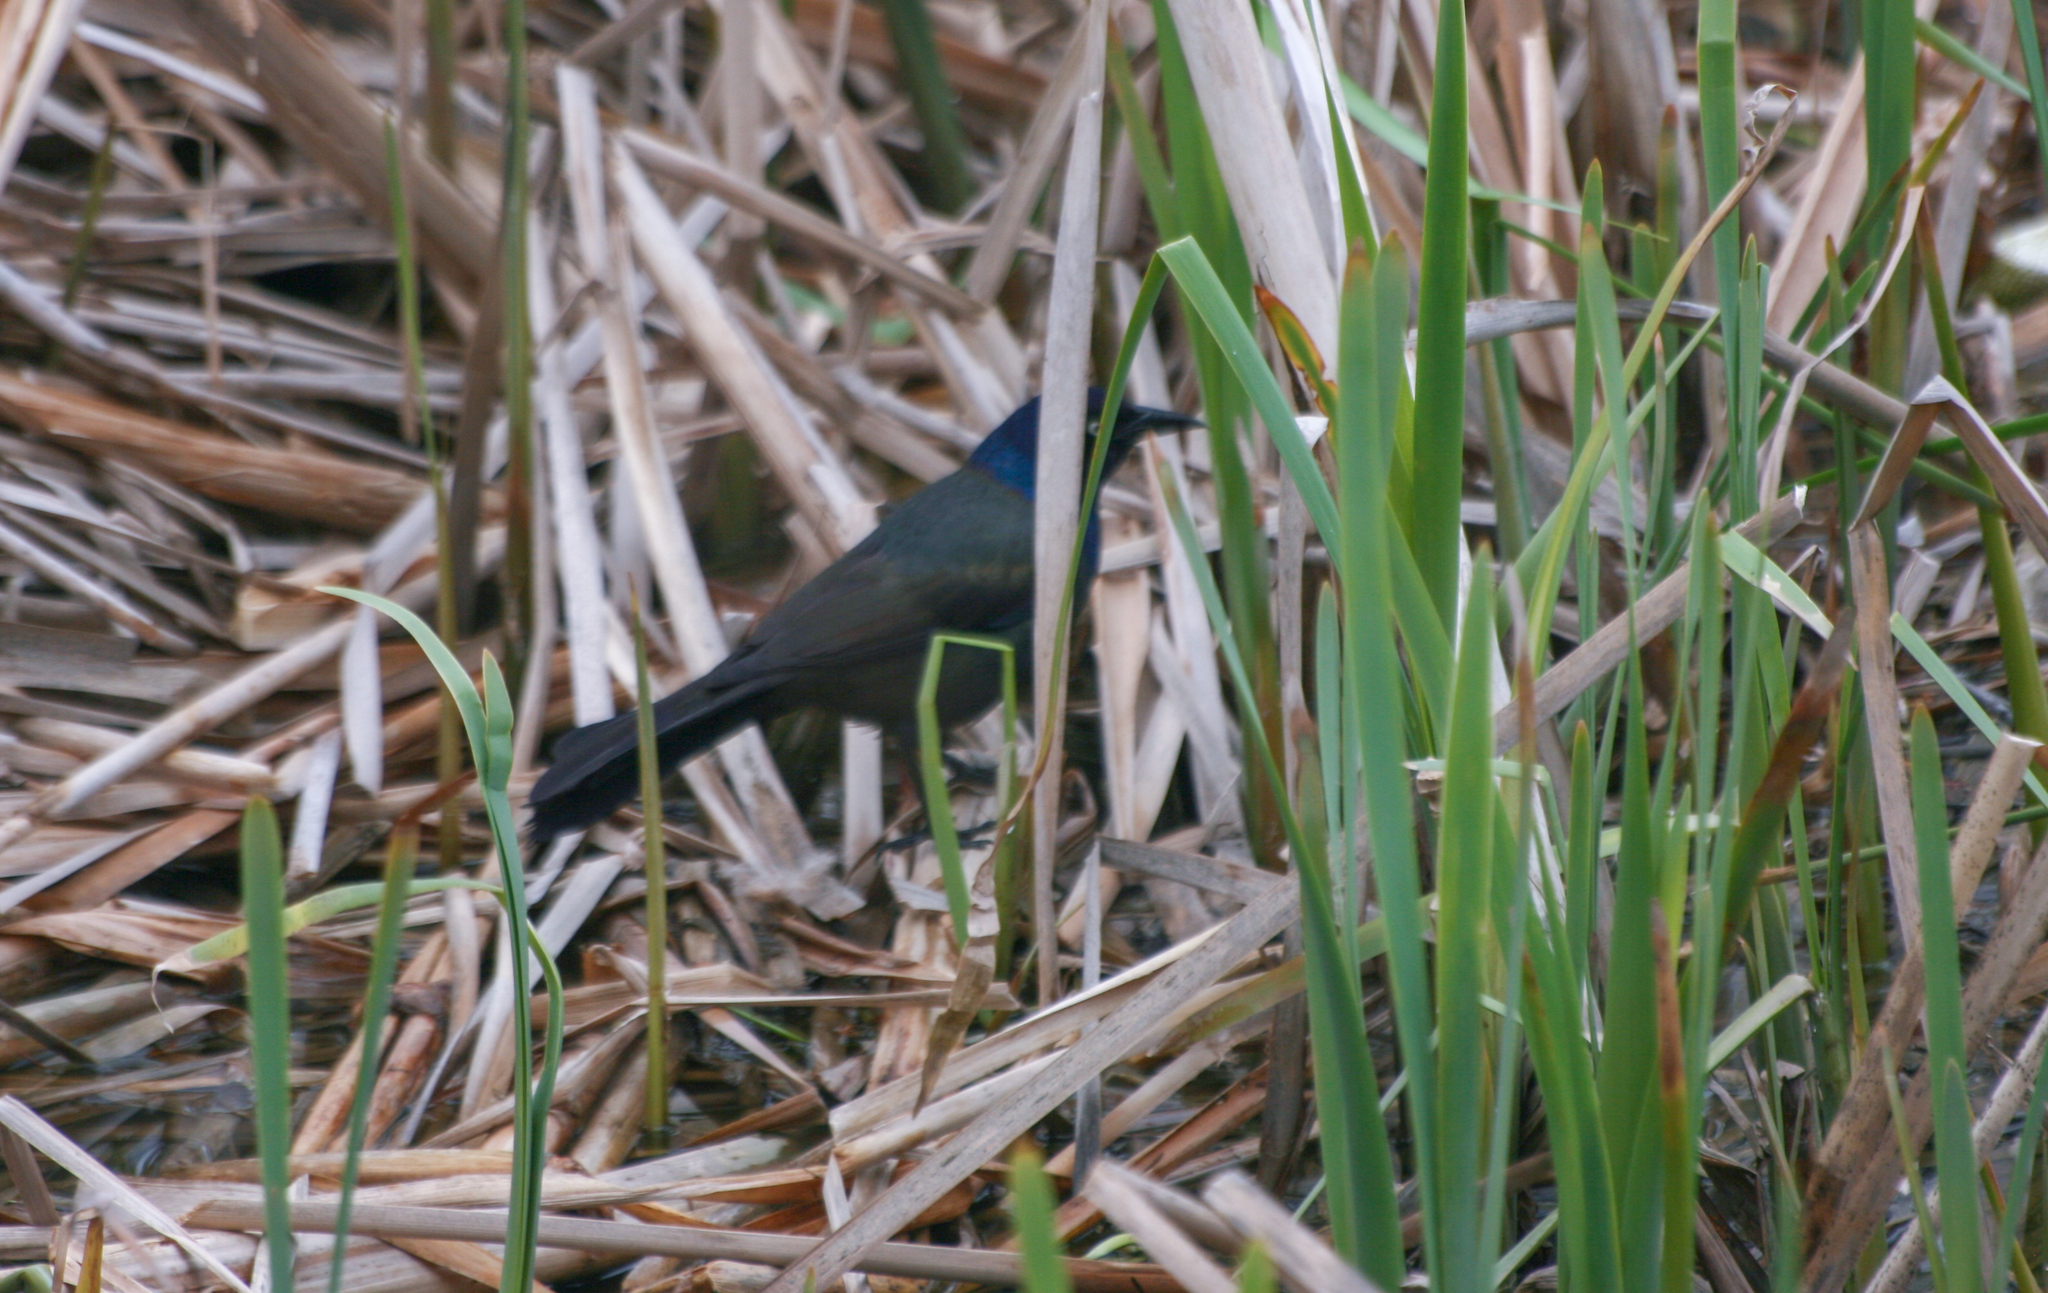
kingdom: Animalia
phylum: Chordata
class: Aves
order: Passeriformes
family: Icteridae
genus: Quiscalus
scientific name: Quiscalus quiscula
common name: Common grackle
